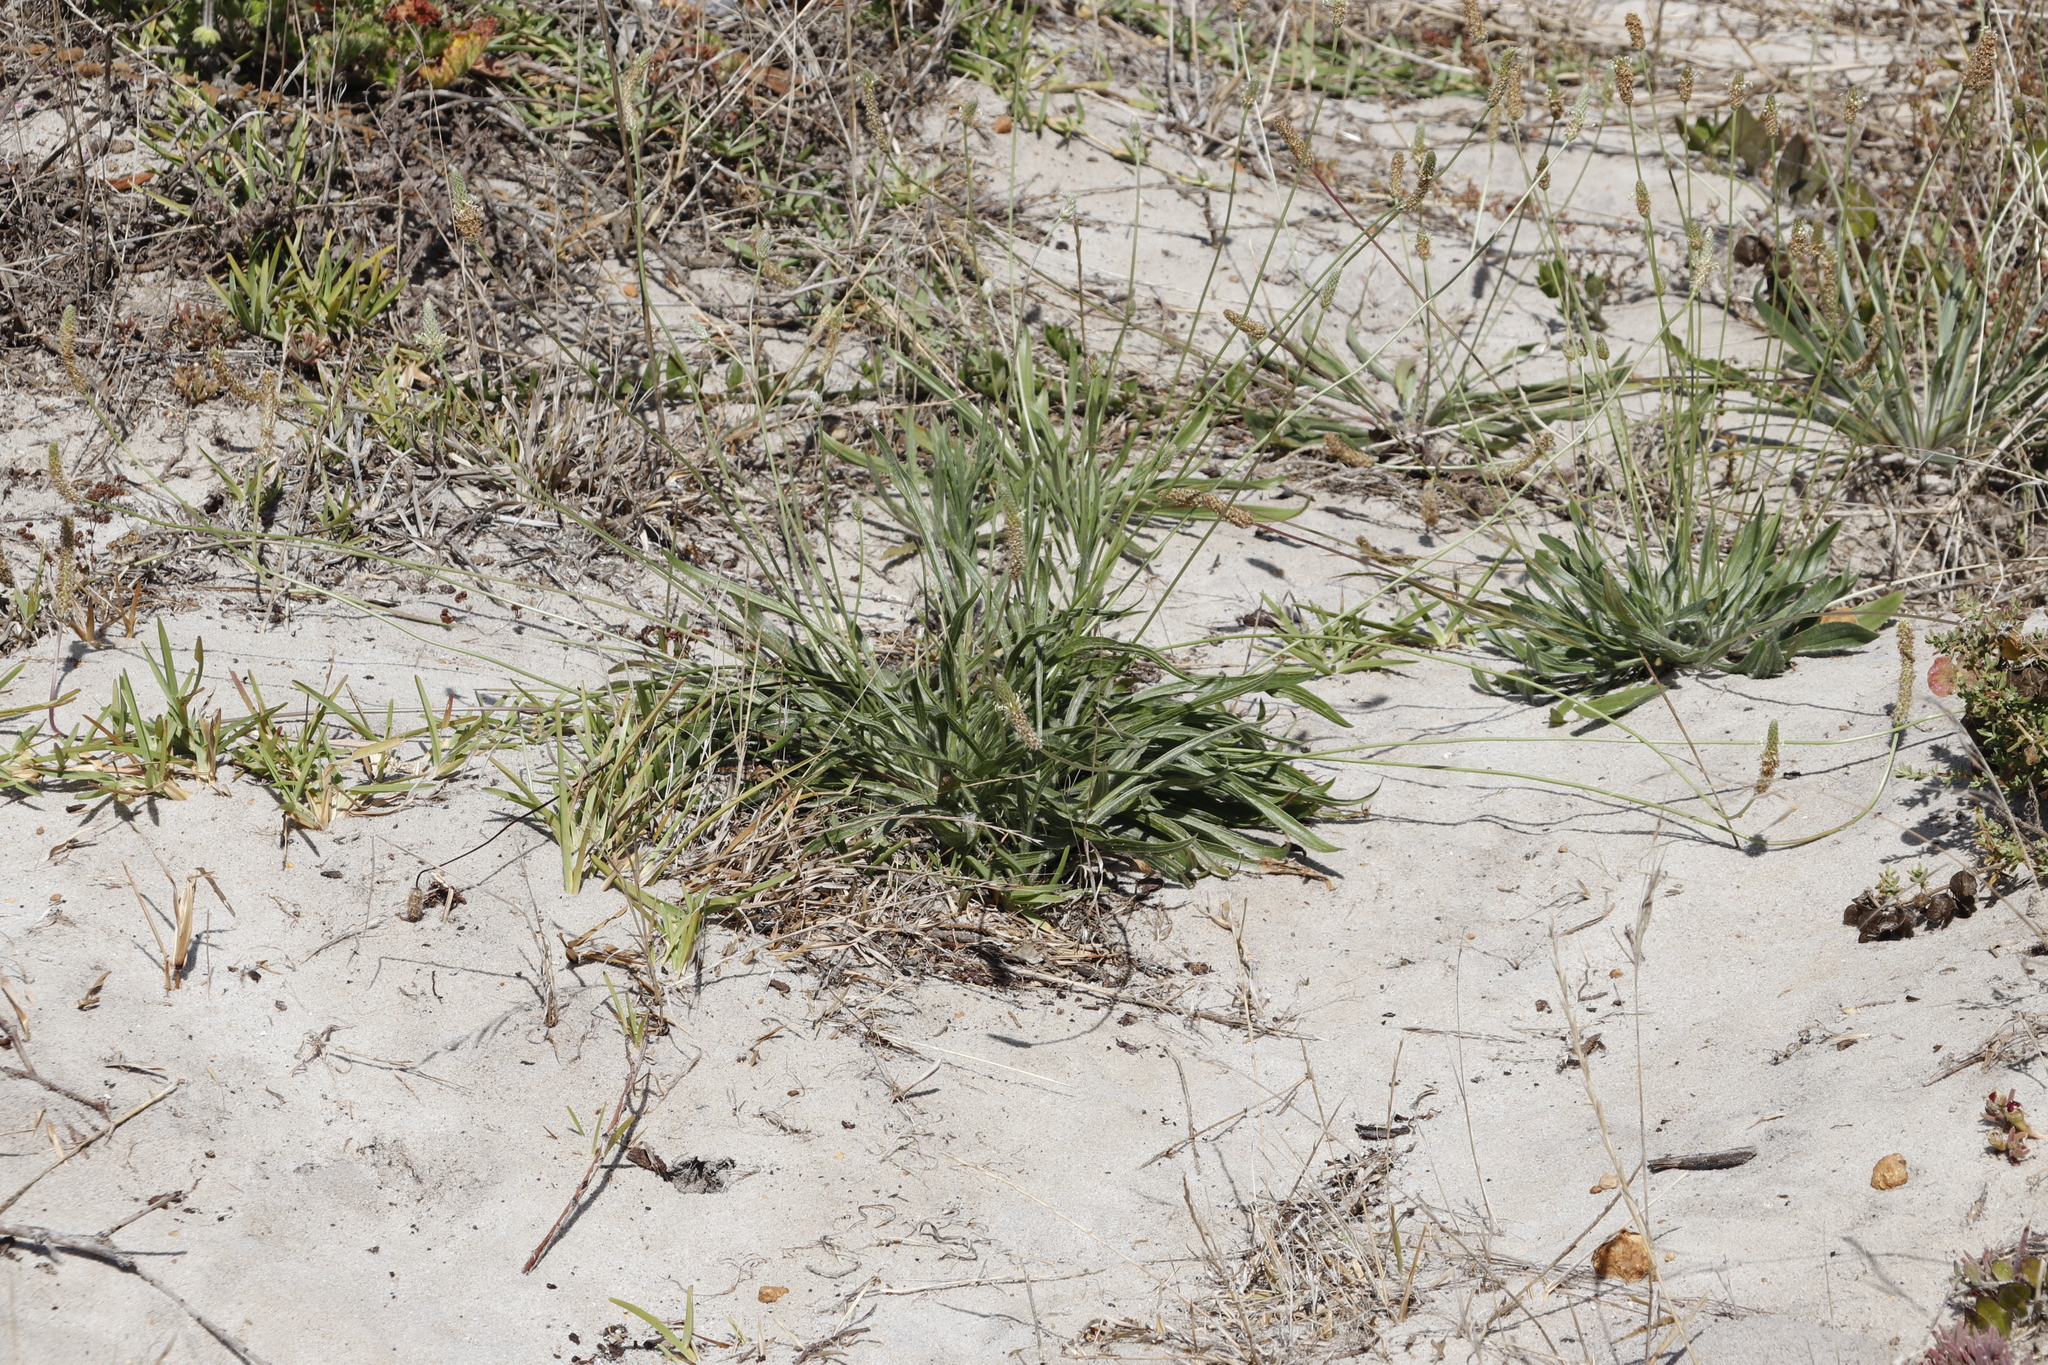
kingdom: Plantae
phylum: Tracheophyta
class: Magnoliopsida
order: Lamiales
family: Plantaginaceae
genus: Plantago
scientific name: Plantago lanceolata
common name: Ribwort plantain
